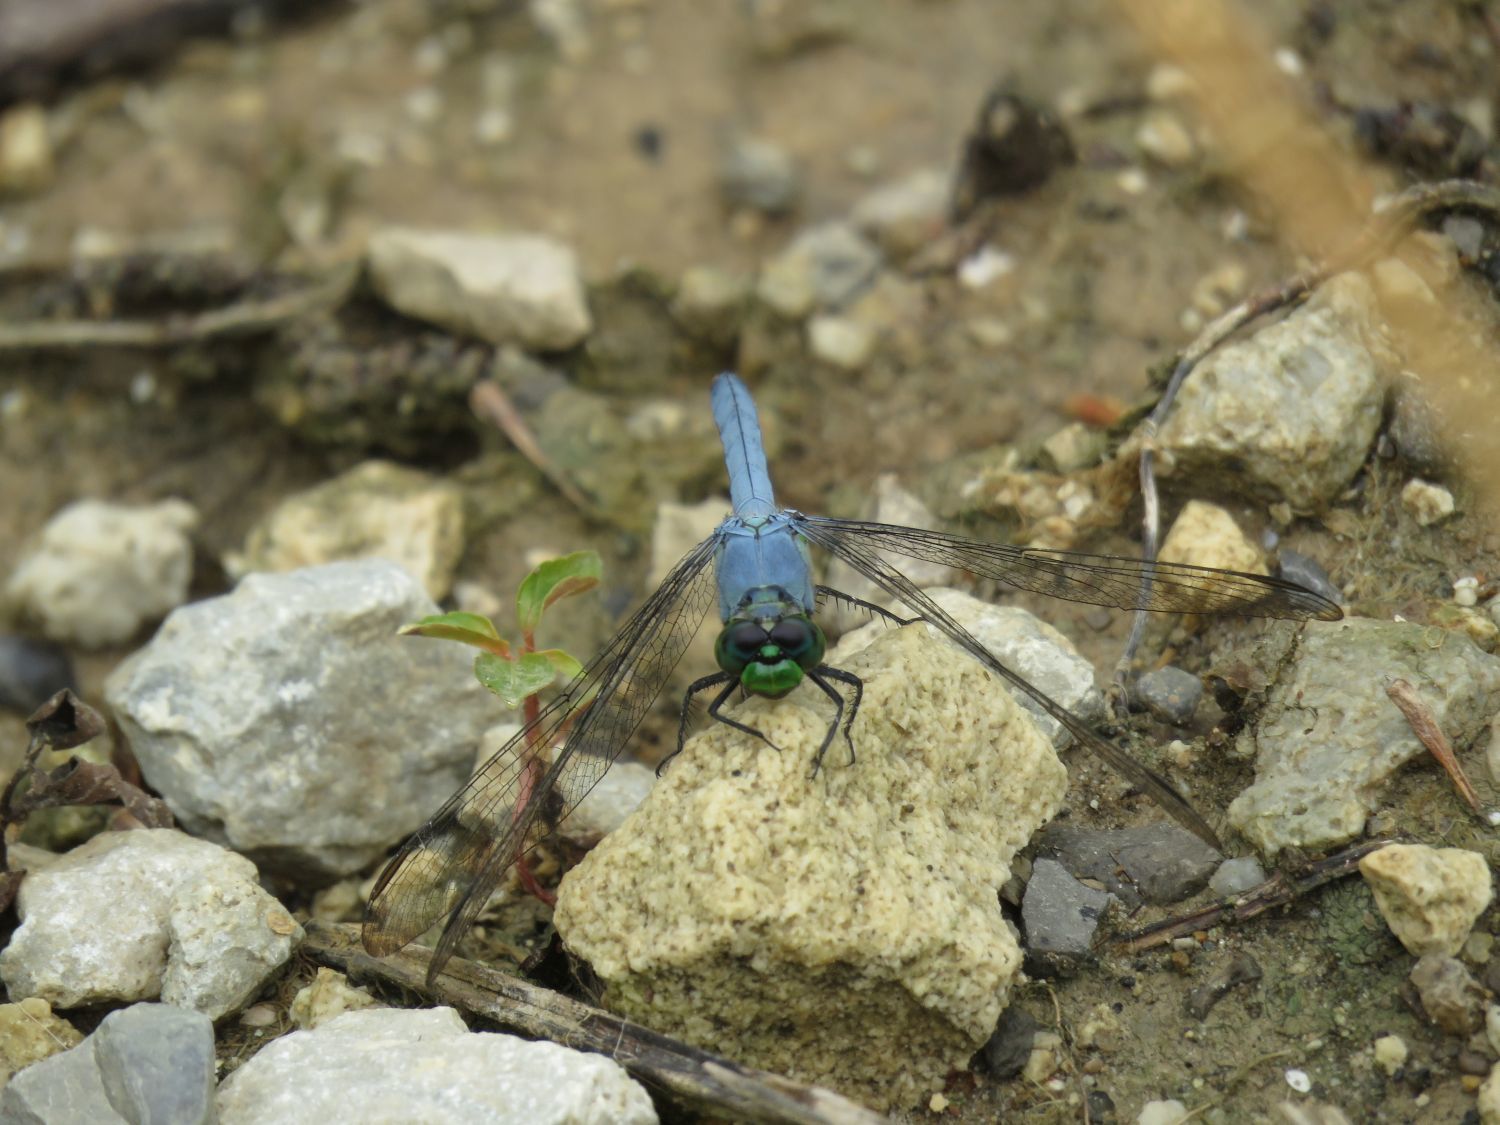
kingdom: Animalia
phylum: Arthropoda
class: Insecta
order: Odonata
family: Libellulidae
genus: Erythemis
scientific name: Erythemis simplicicollis
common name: Eastern pondhawk
